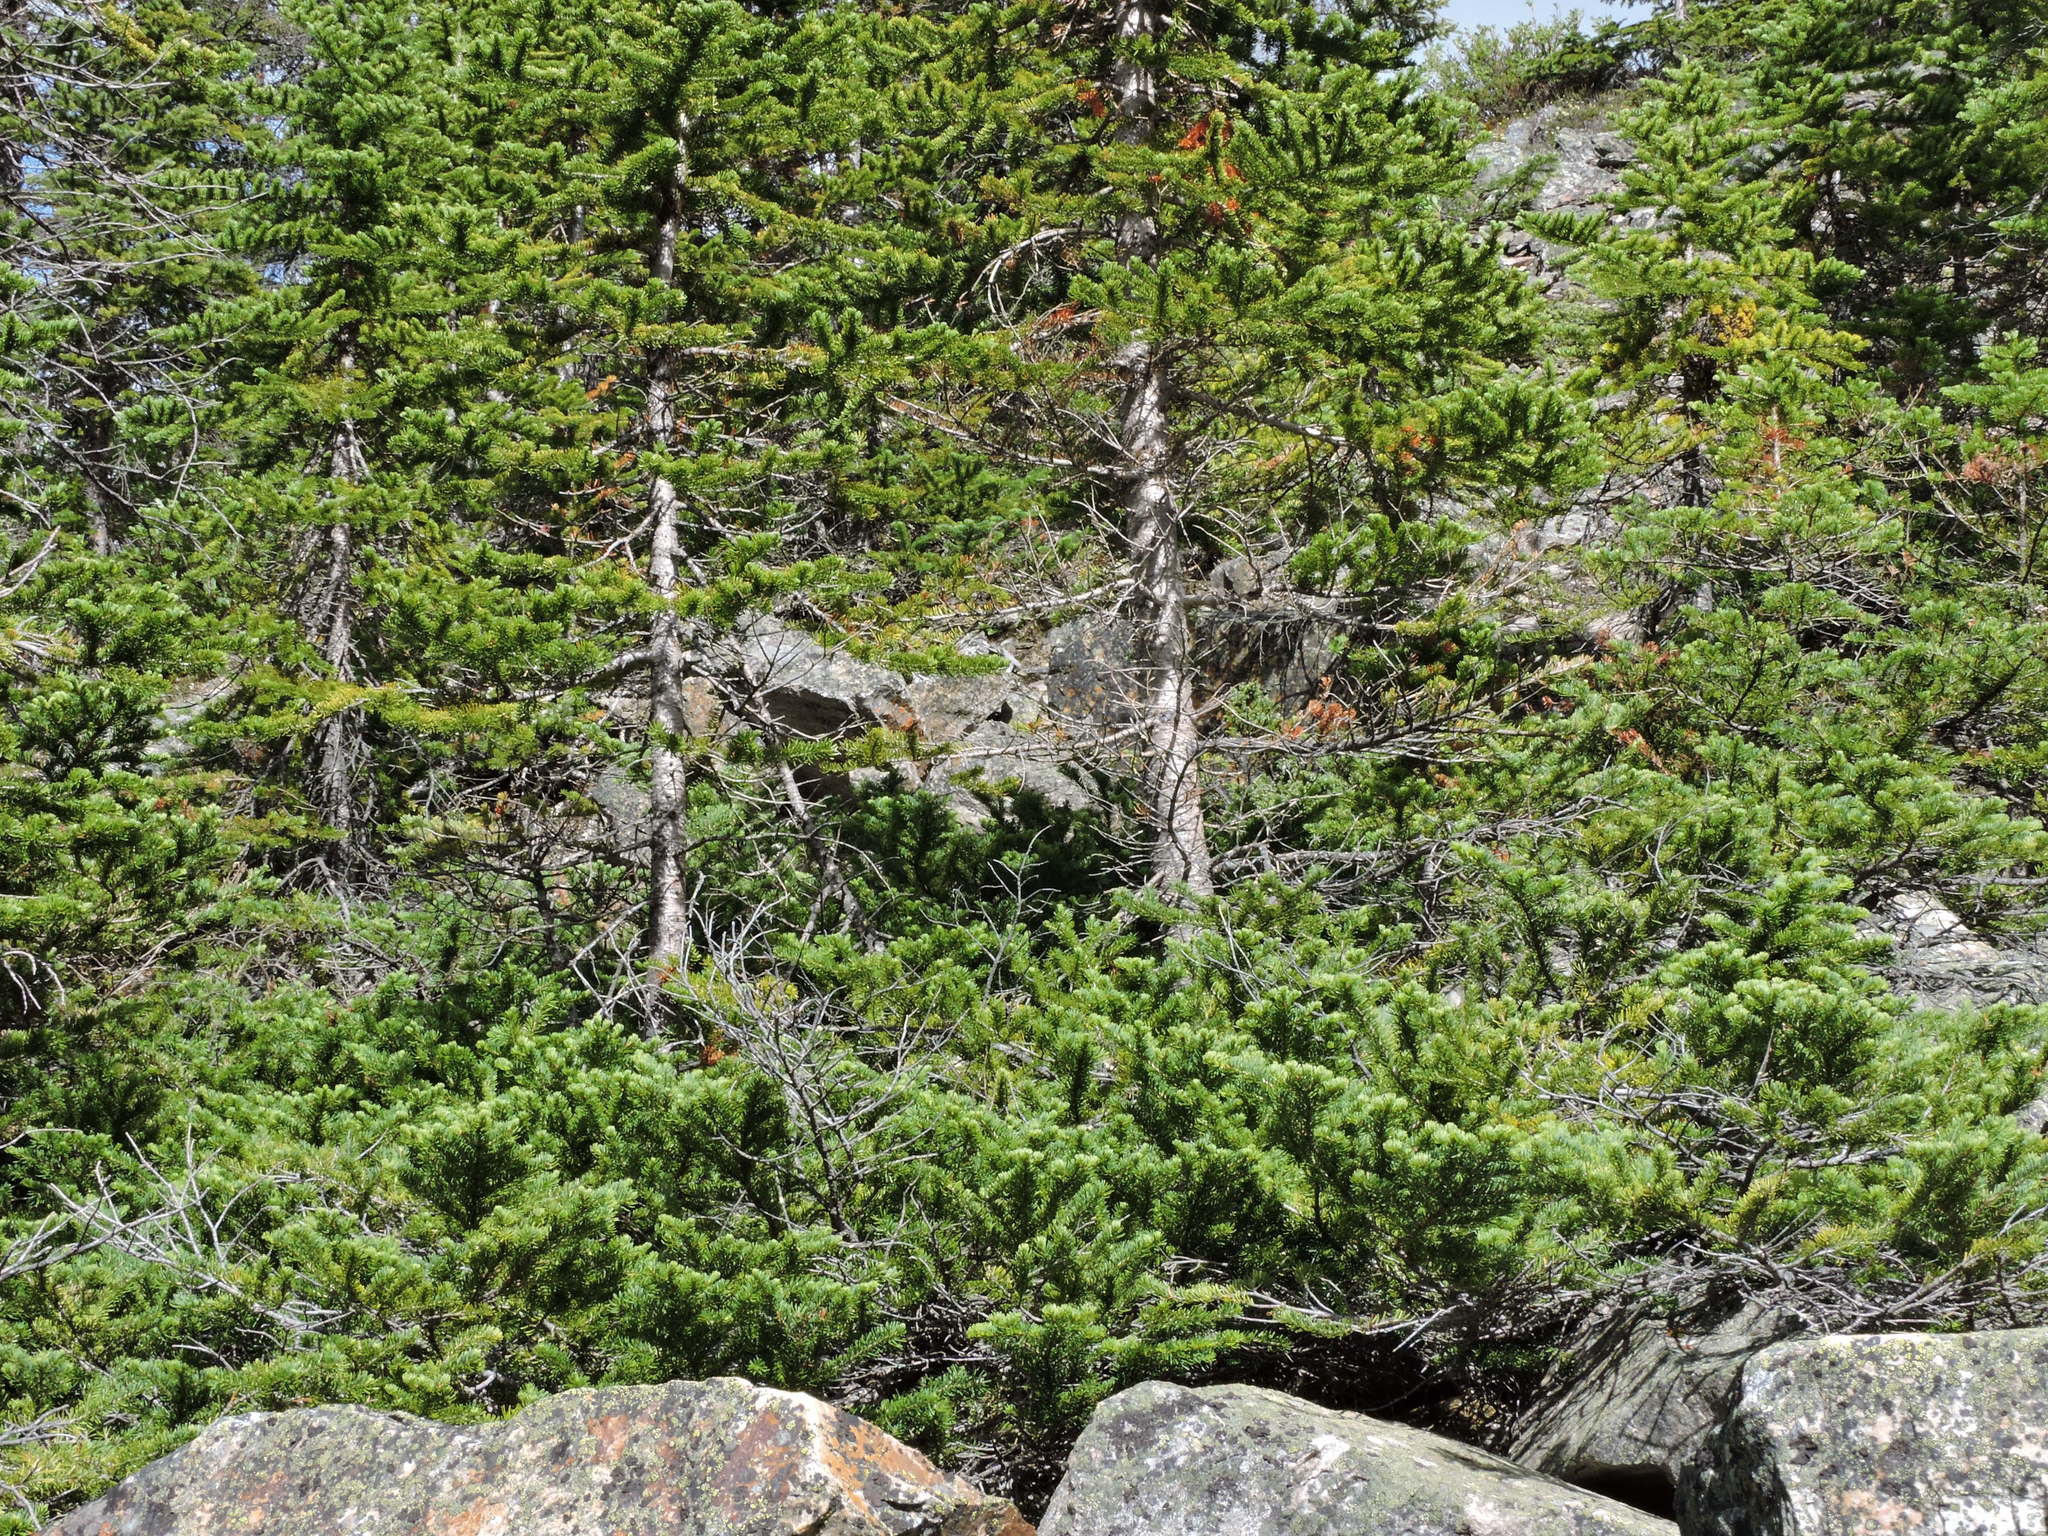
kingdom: Plantae
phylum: Tracheophyta
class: Pinopsida
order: Pinales
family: Pinaceae
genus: Abies
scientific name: Abies lasiocarpa
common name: Subalpine fir
